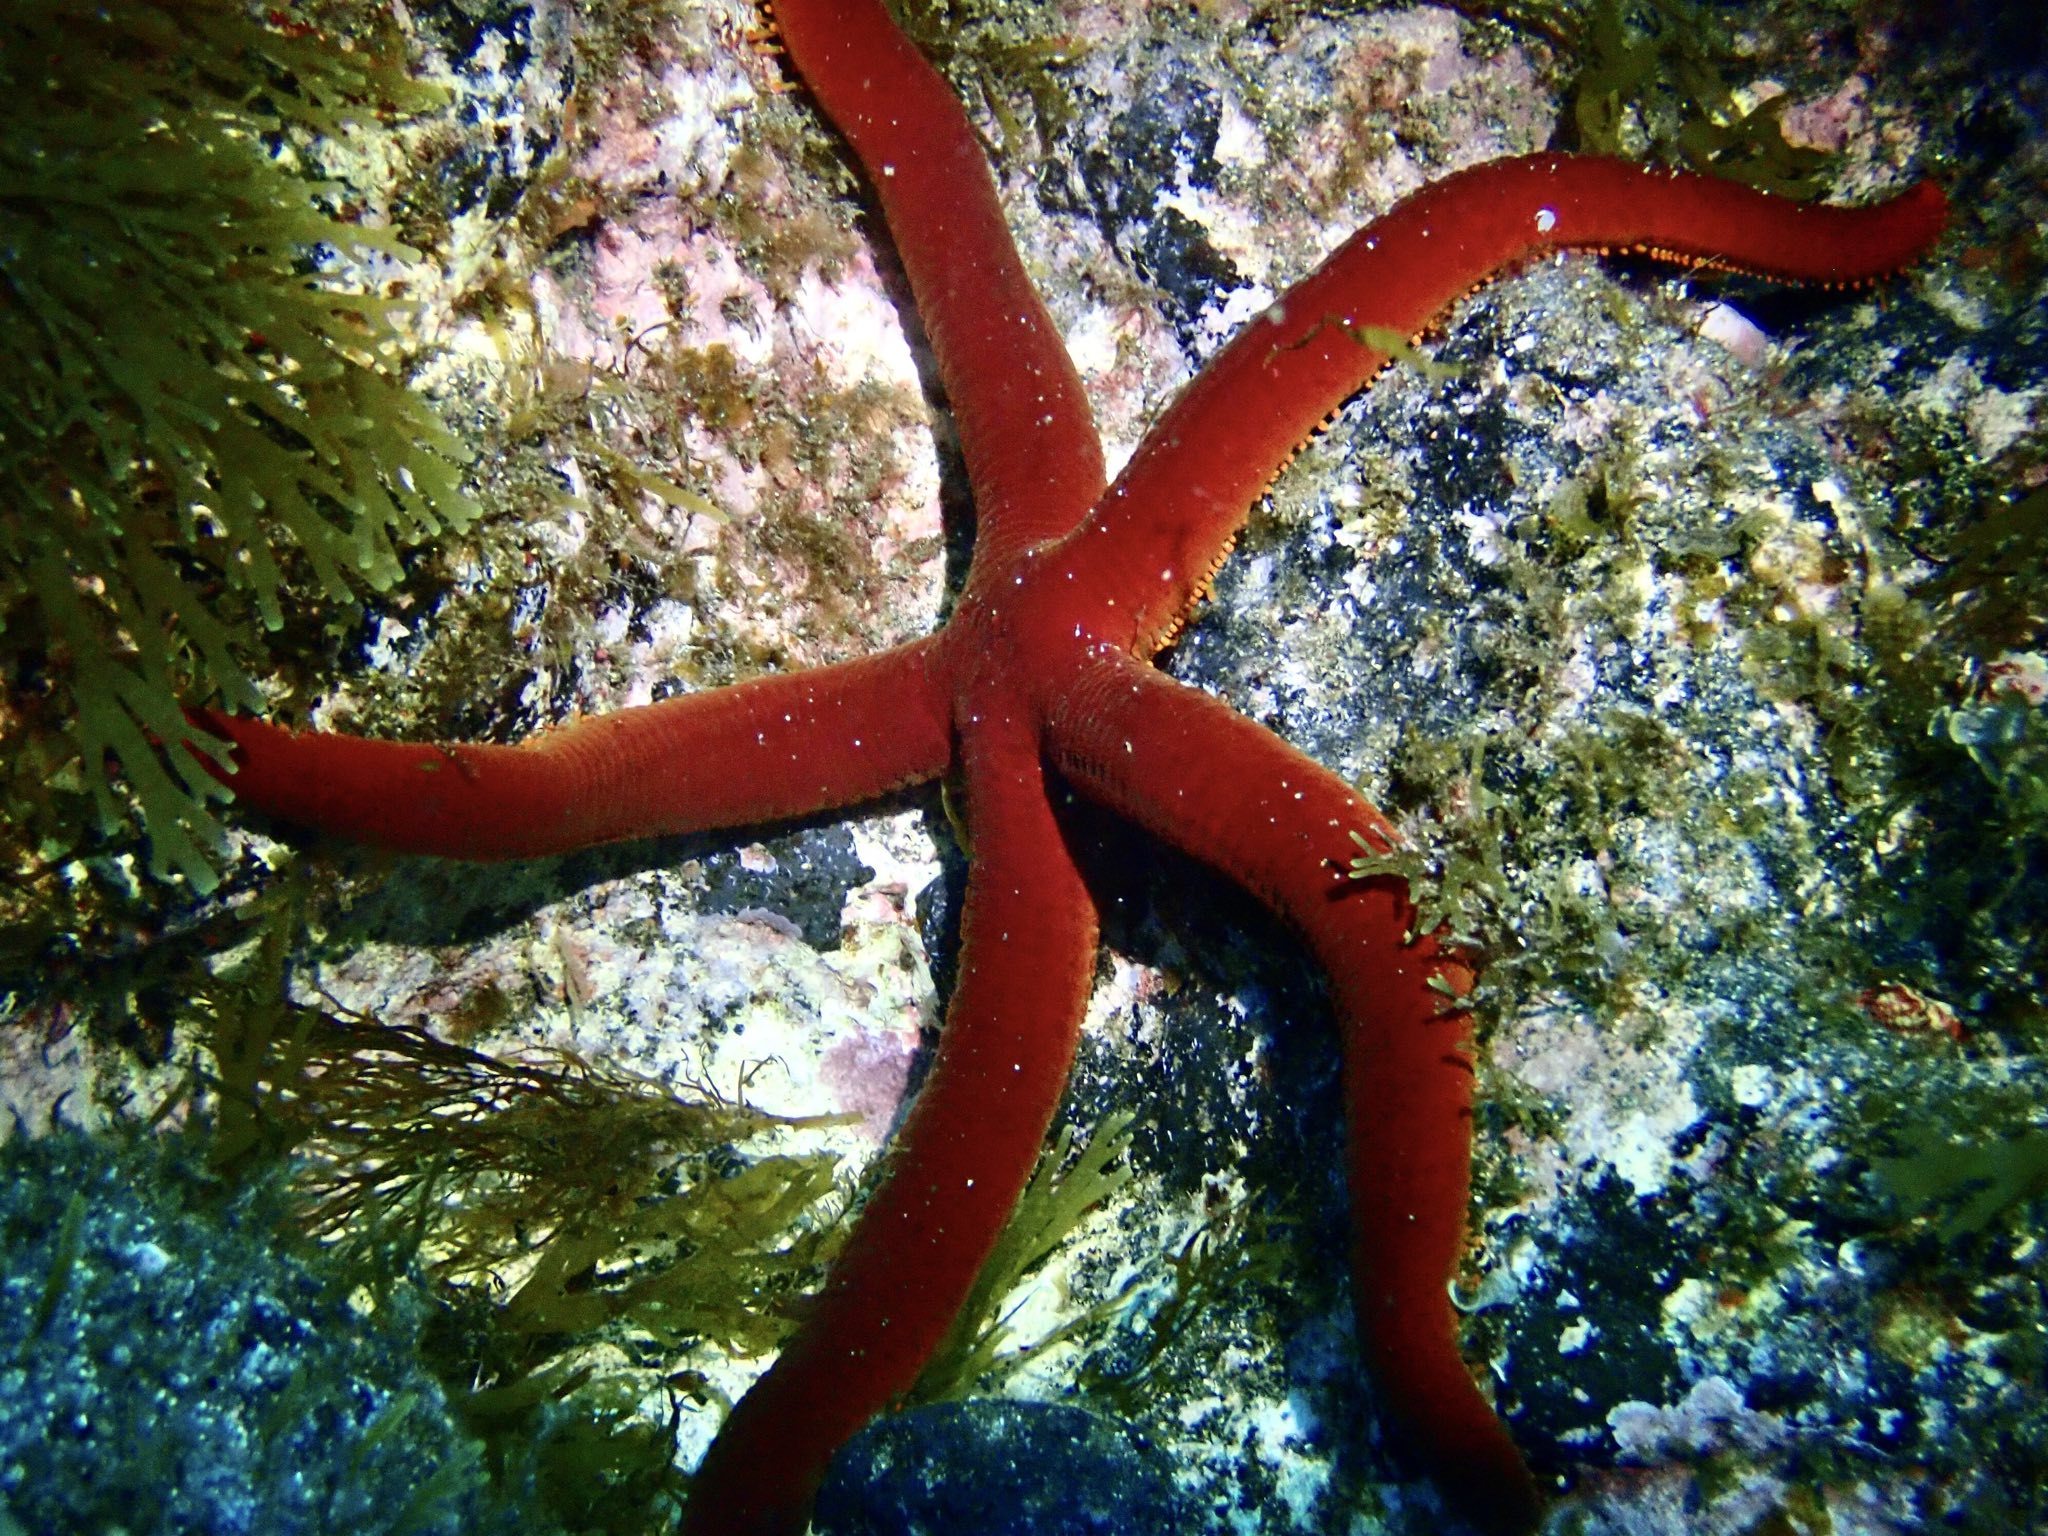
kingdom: Animalia
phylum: Echinodermata
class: Asteroidea
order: Valvatida
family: Ophidiasteridae
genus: Ophidiaster
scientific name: Ophidiaster ophidianus
